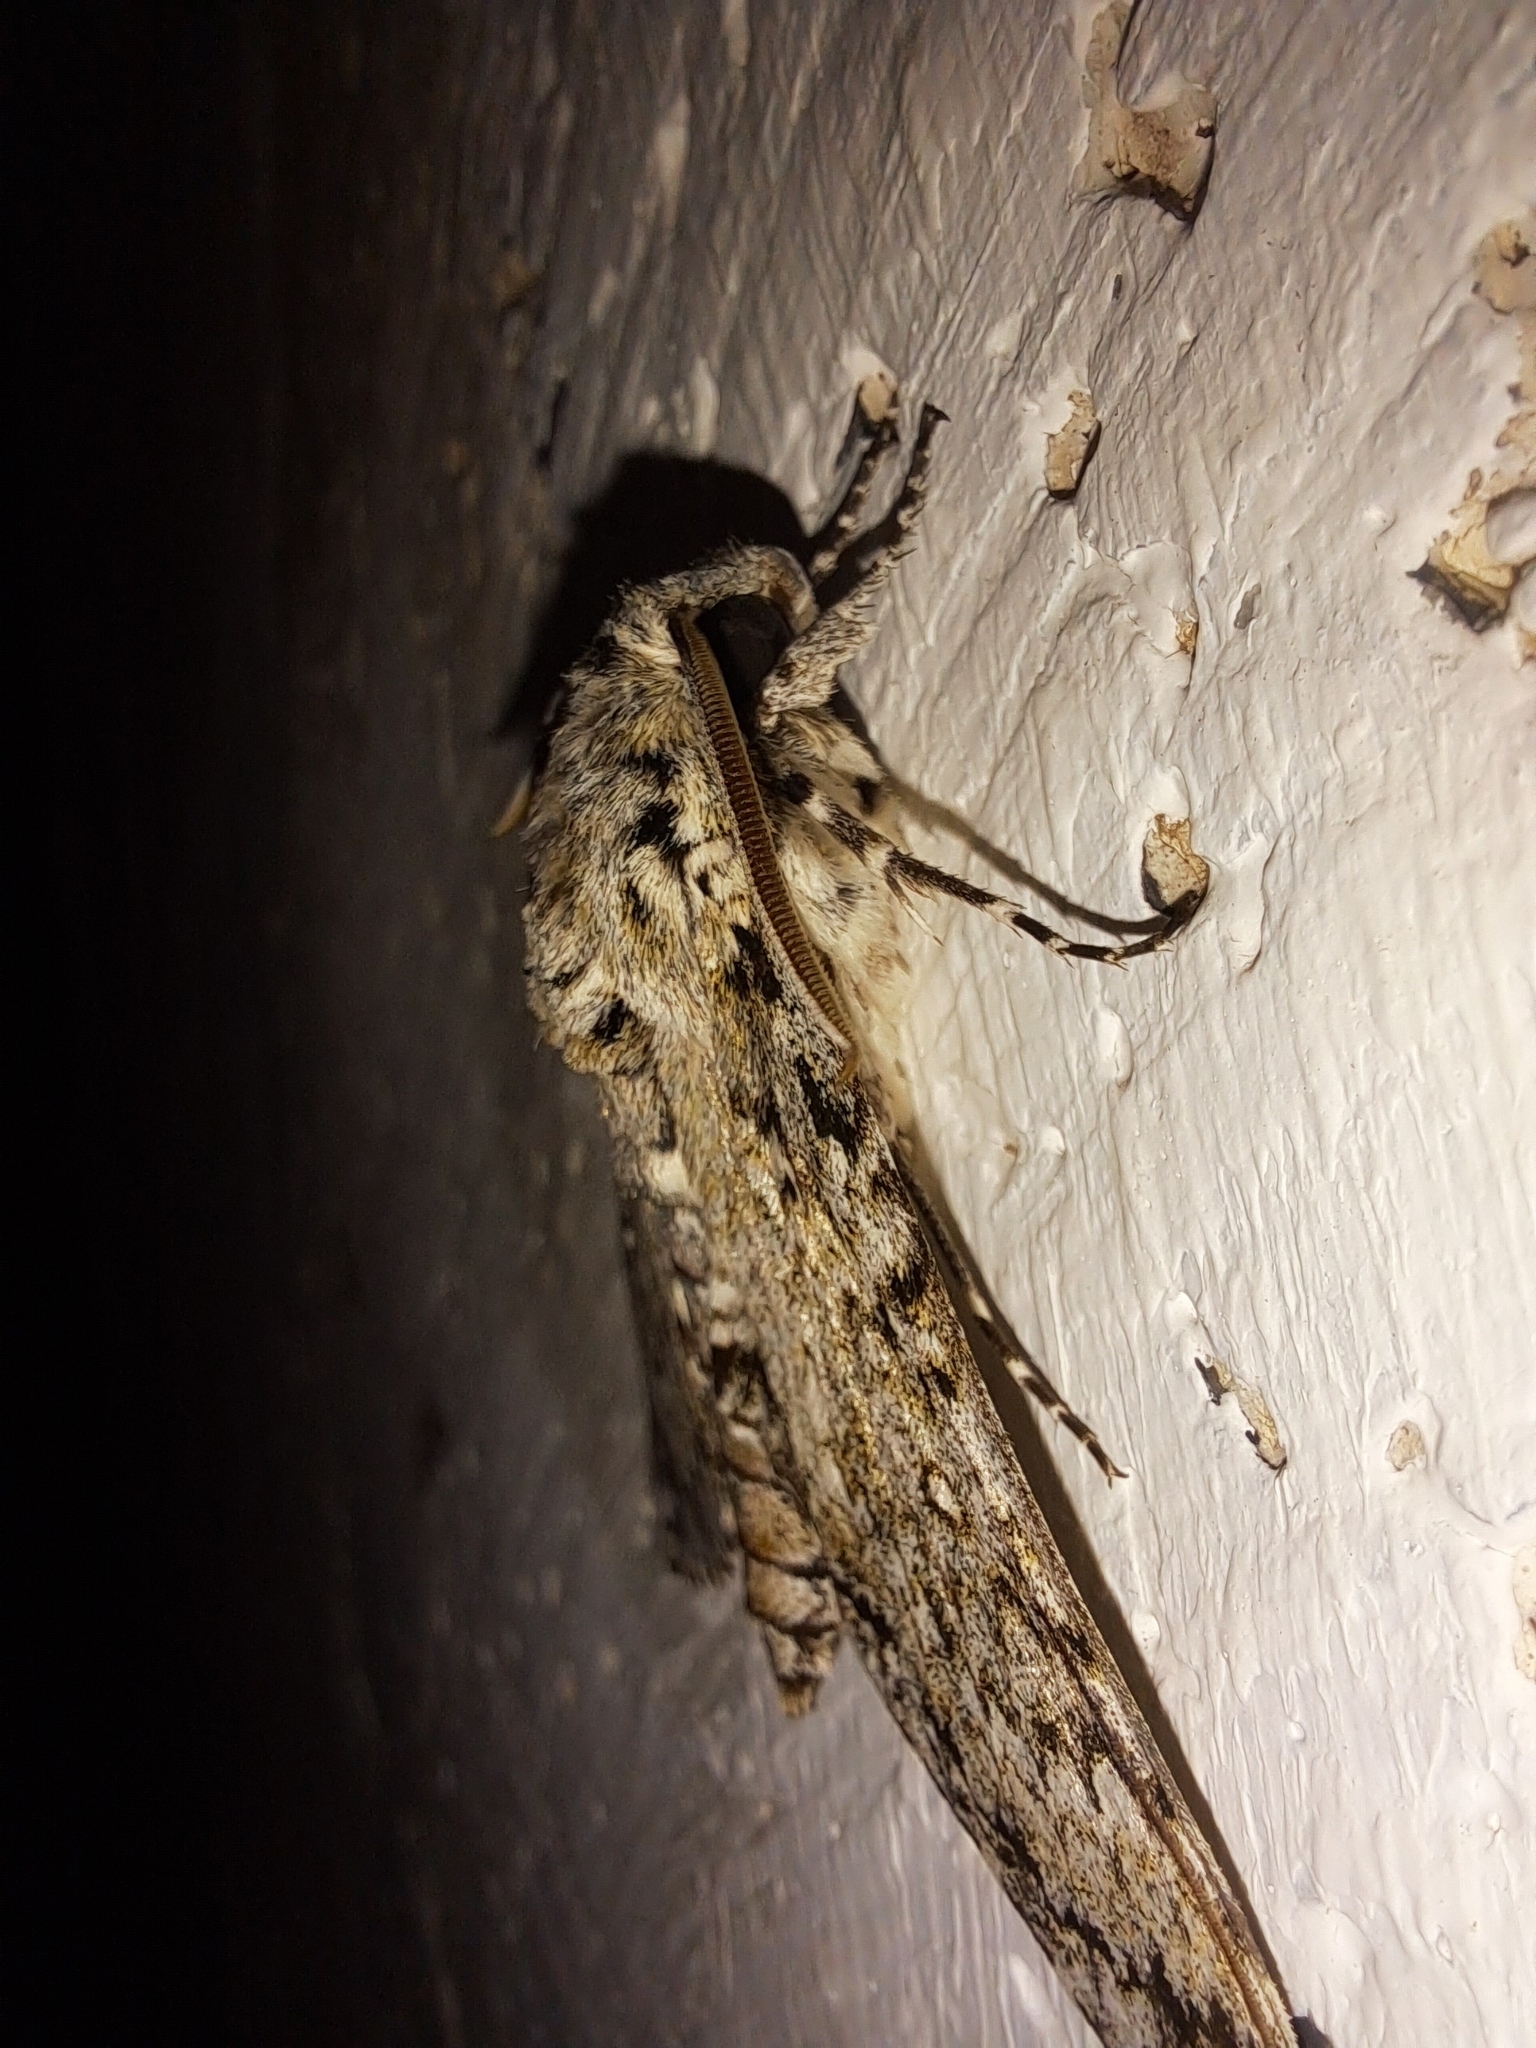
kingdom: Animalia
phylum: Arthropoda
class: Insecta
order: Lepidoptera
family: Sphingidae
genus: Manduca
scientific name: Manduca rustica
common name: Rustic sphinx
